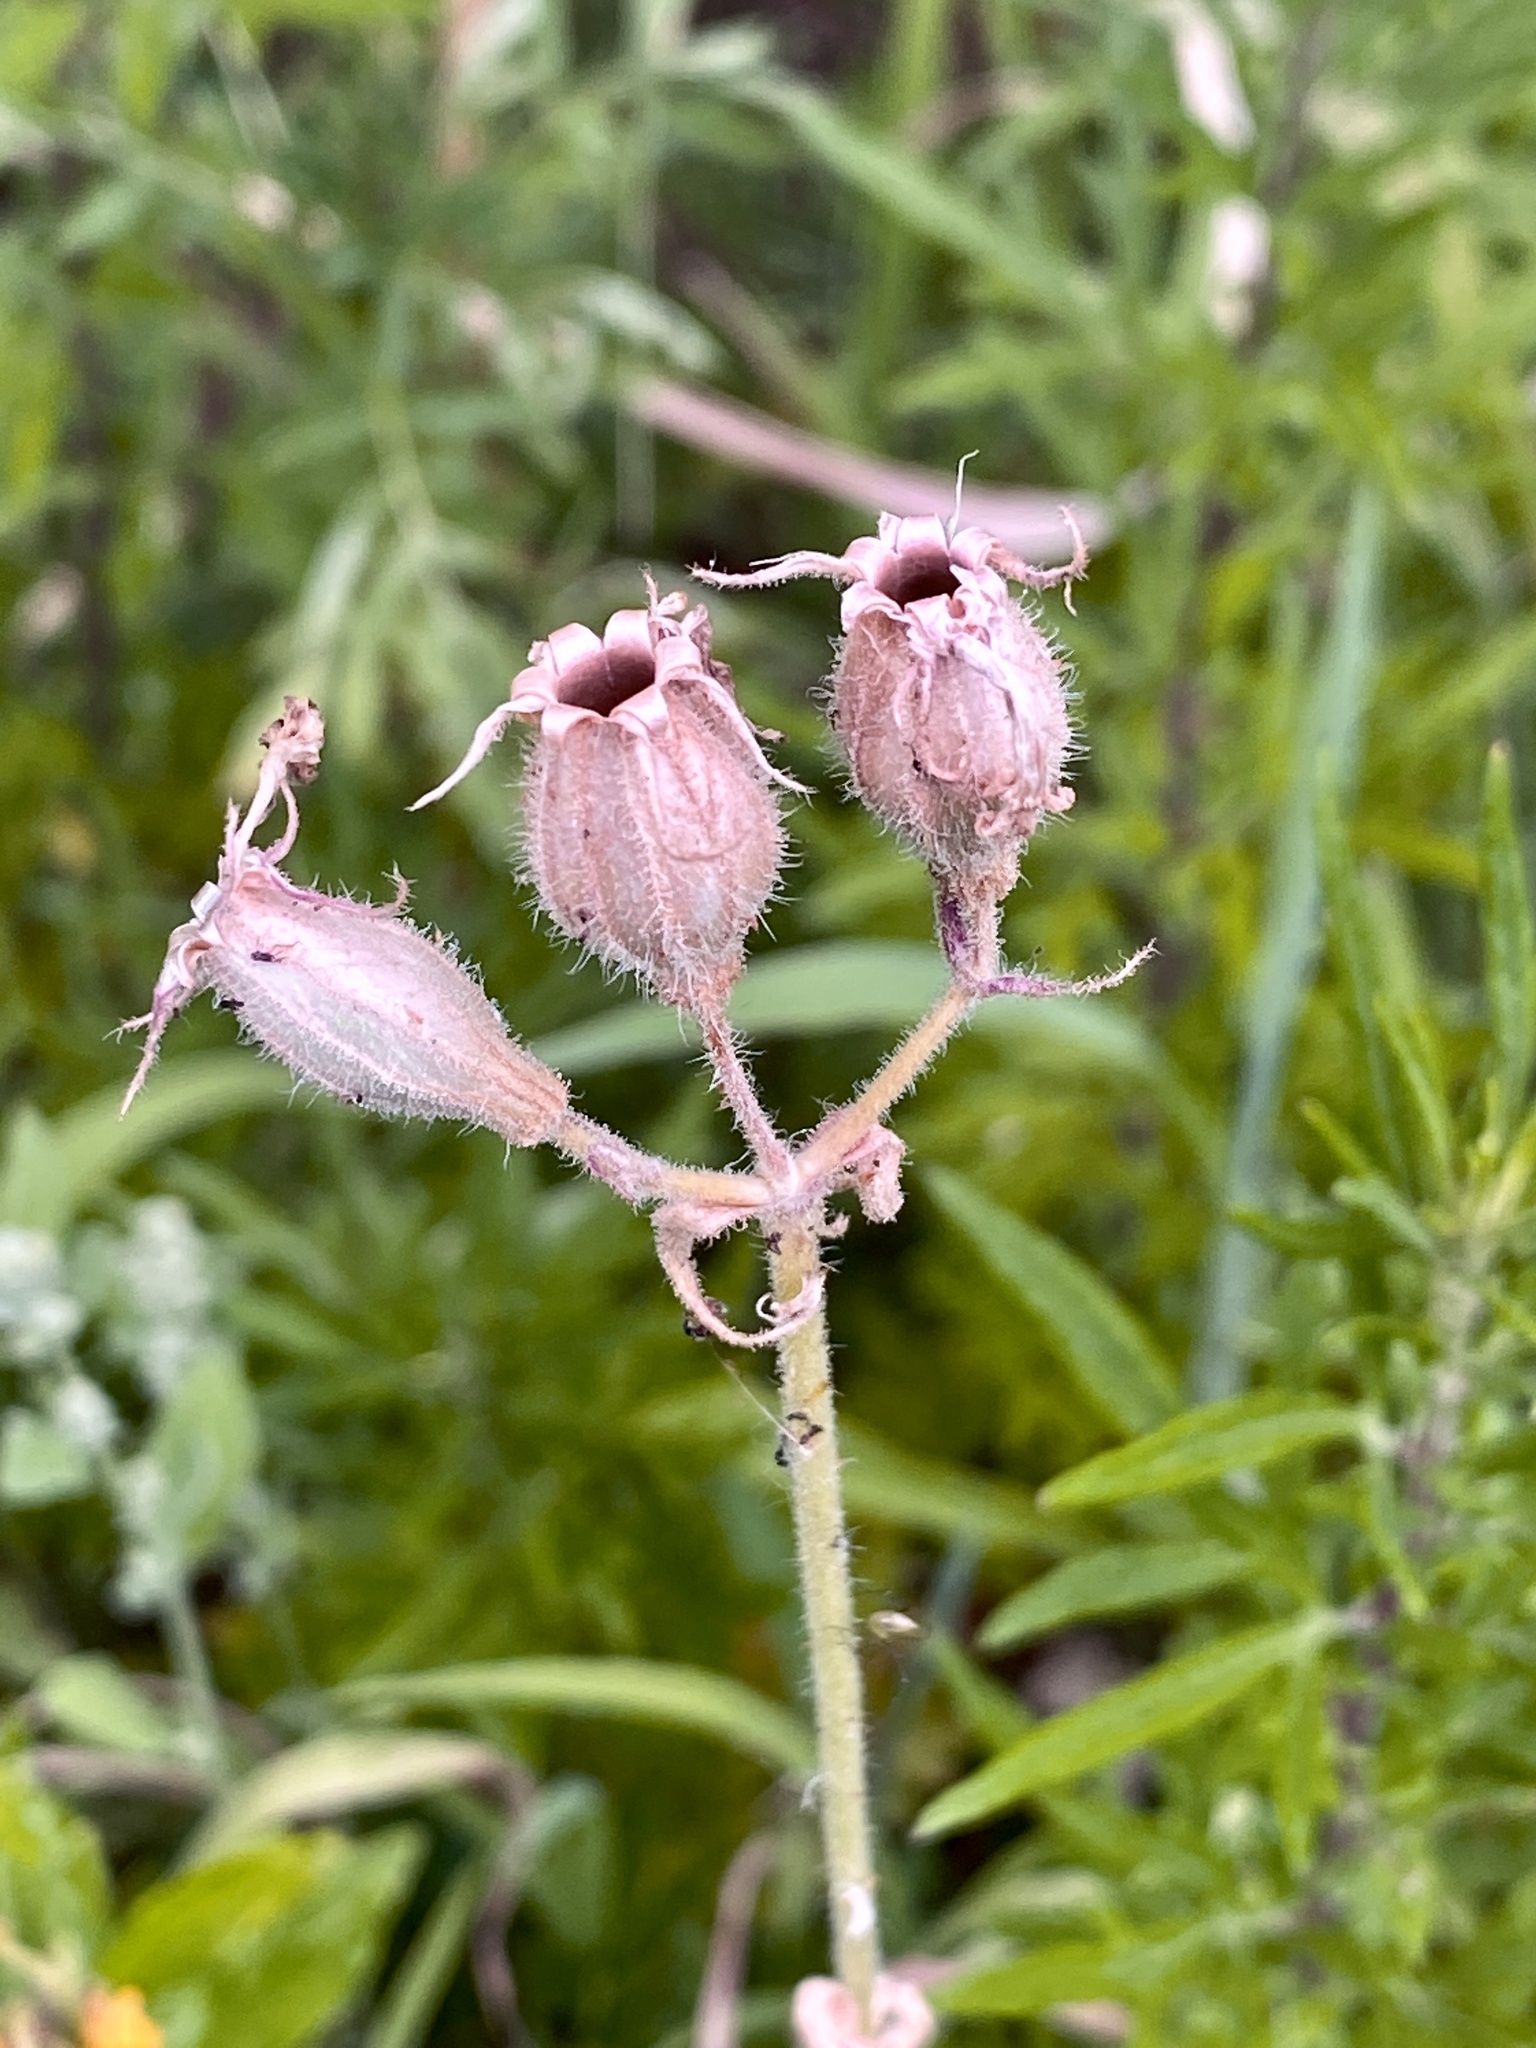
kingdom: Plantae
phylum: Tracheophyta
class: Magnoliopsida
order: Caryophyllales
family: Caryophyllaceae
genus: Silene
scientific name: Silene latifolia
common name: White campion
